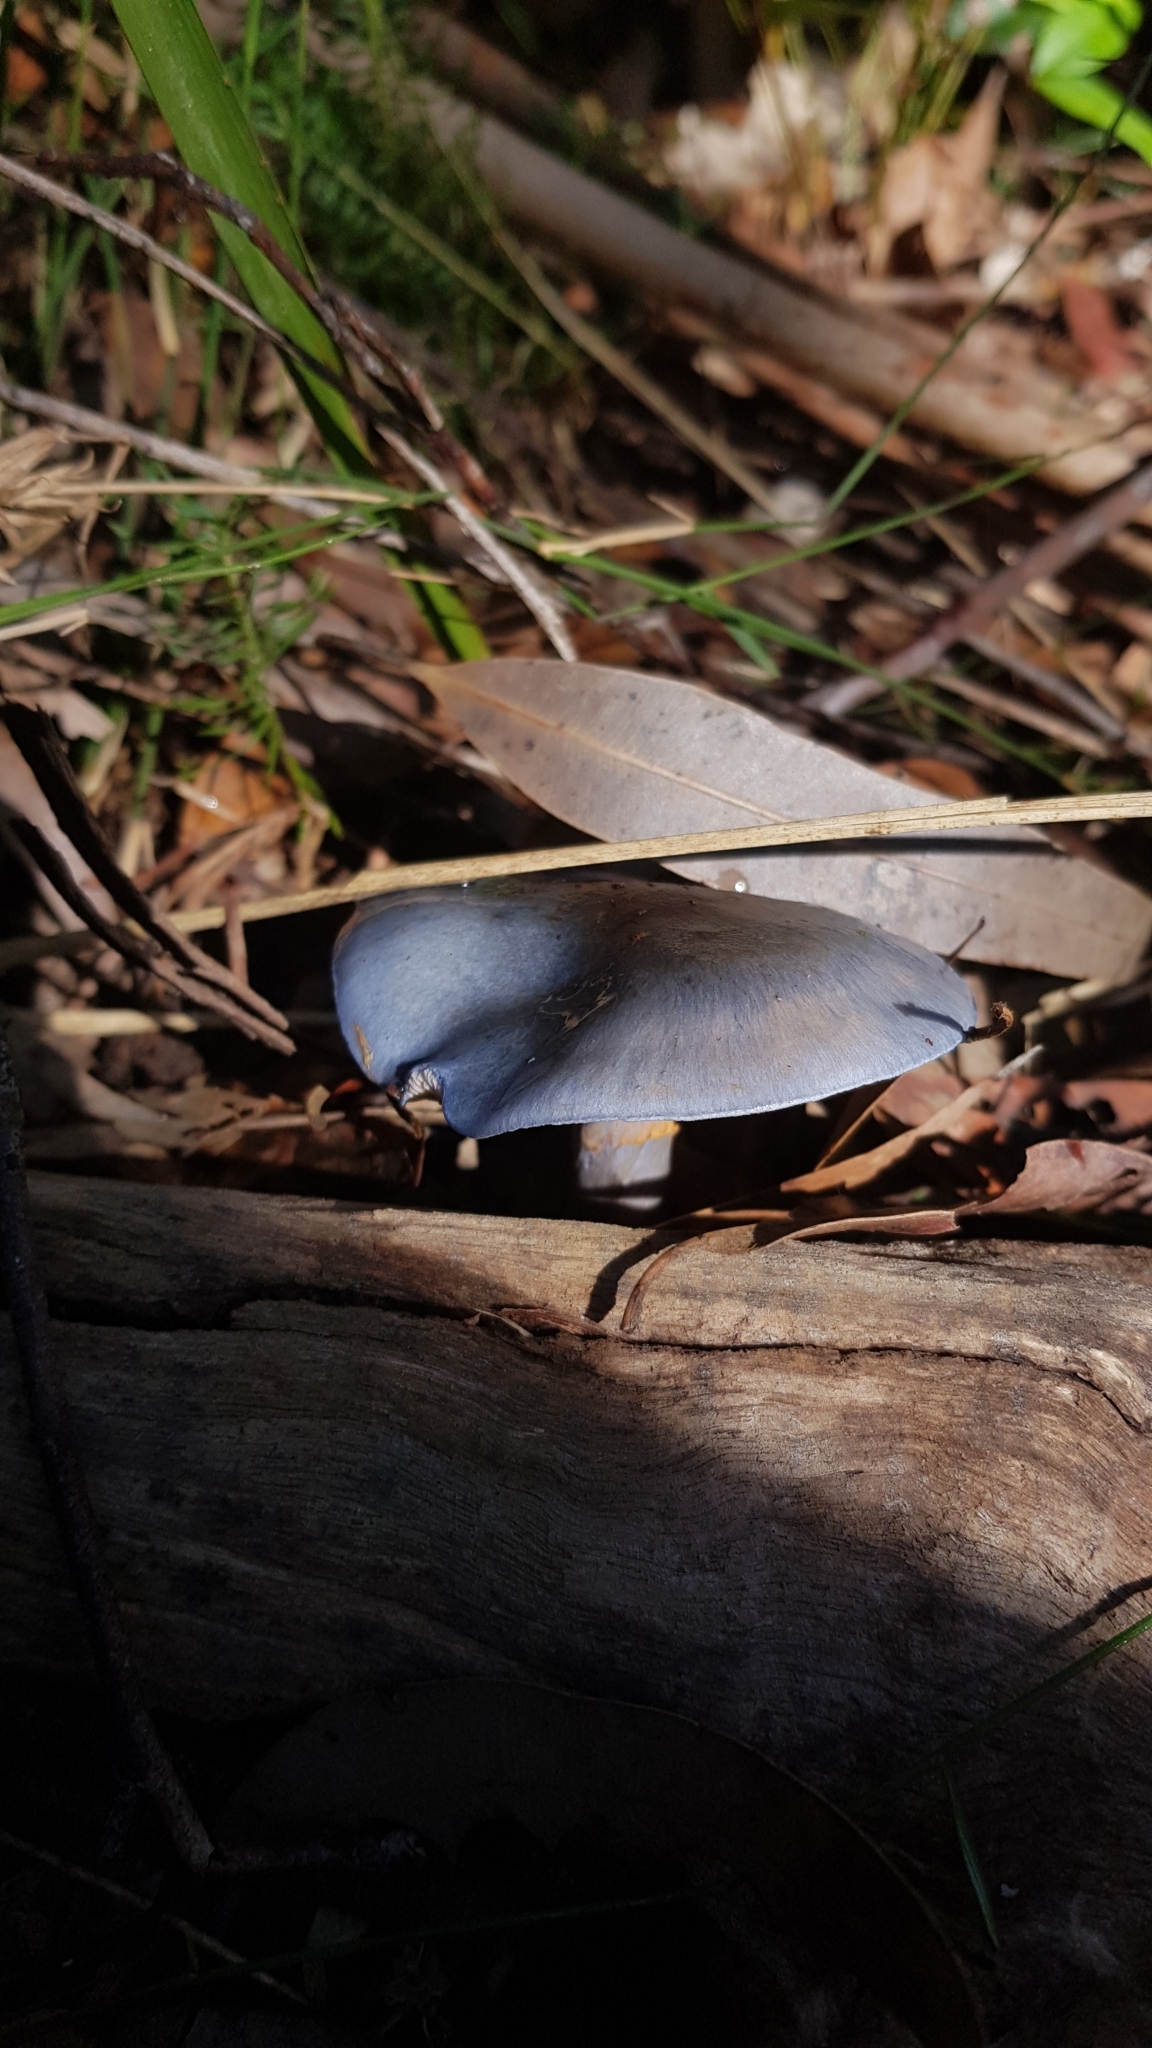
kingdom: Fungi
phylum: Basidiomycota
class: Agaricomycetes
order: Agaricales
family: Cortinariaceae
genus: Cortinarius
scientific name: Cortinarius rotundisporus
